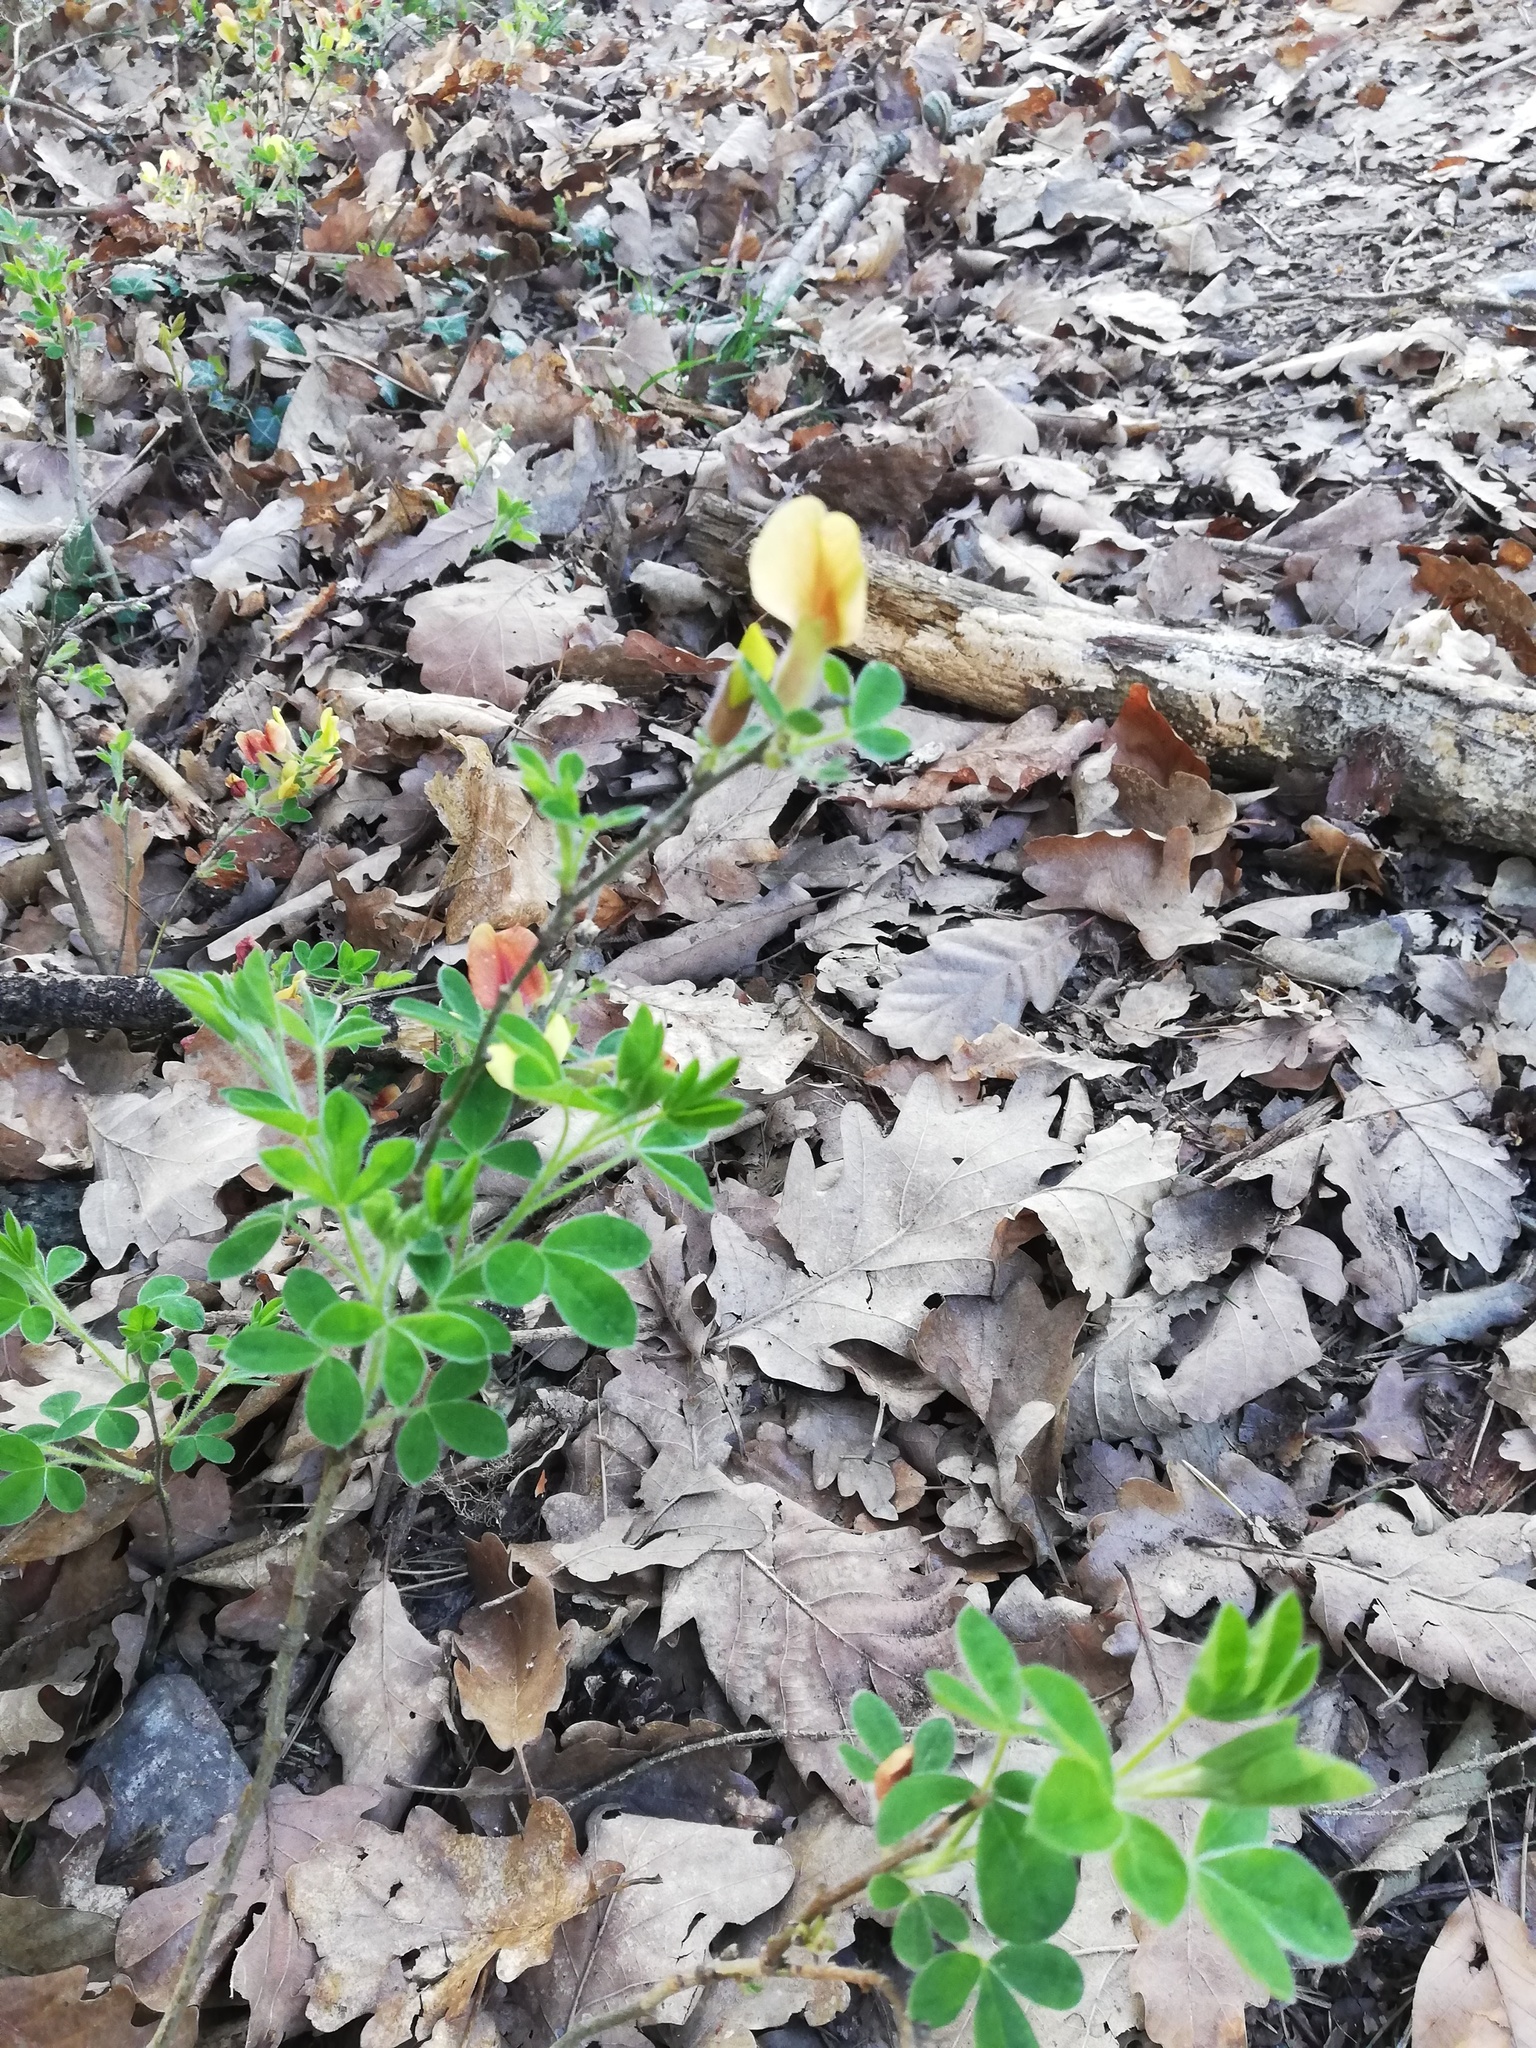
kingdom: Plantae
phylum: Tracheophyta
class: Magnoliopsida
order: Fabales
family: Fabaceae
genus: Chamaecytisus
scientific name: Chamaecytisus hirsutus
